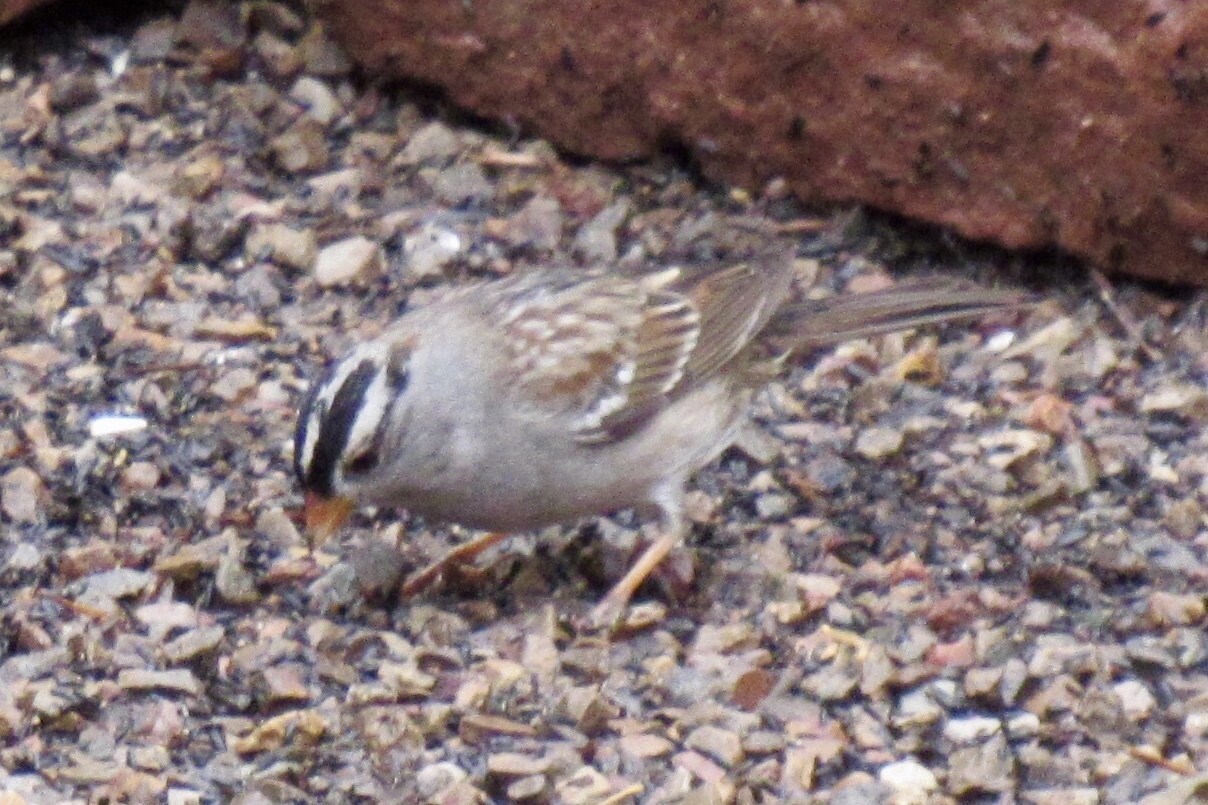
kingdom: Animalia
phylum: Chordata
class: Aves
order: Passeriformes
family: Passerellidae
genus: Zonotrichia
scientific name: Zonotrichia leucophrys
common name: White-crowned sparrow
